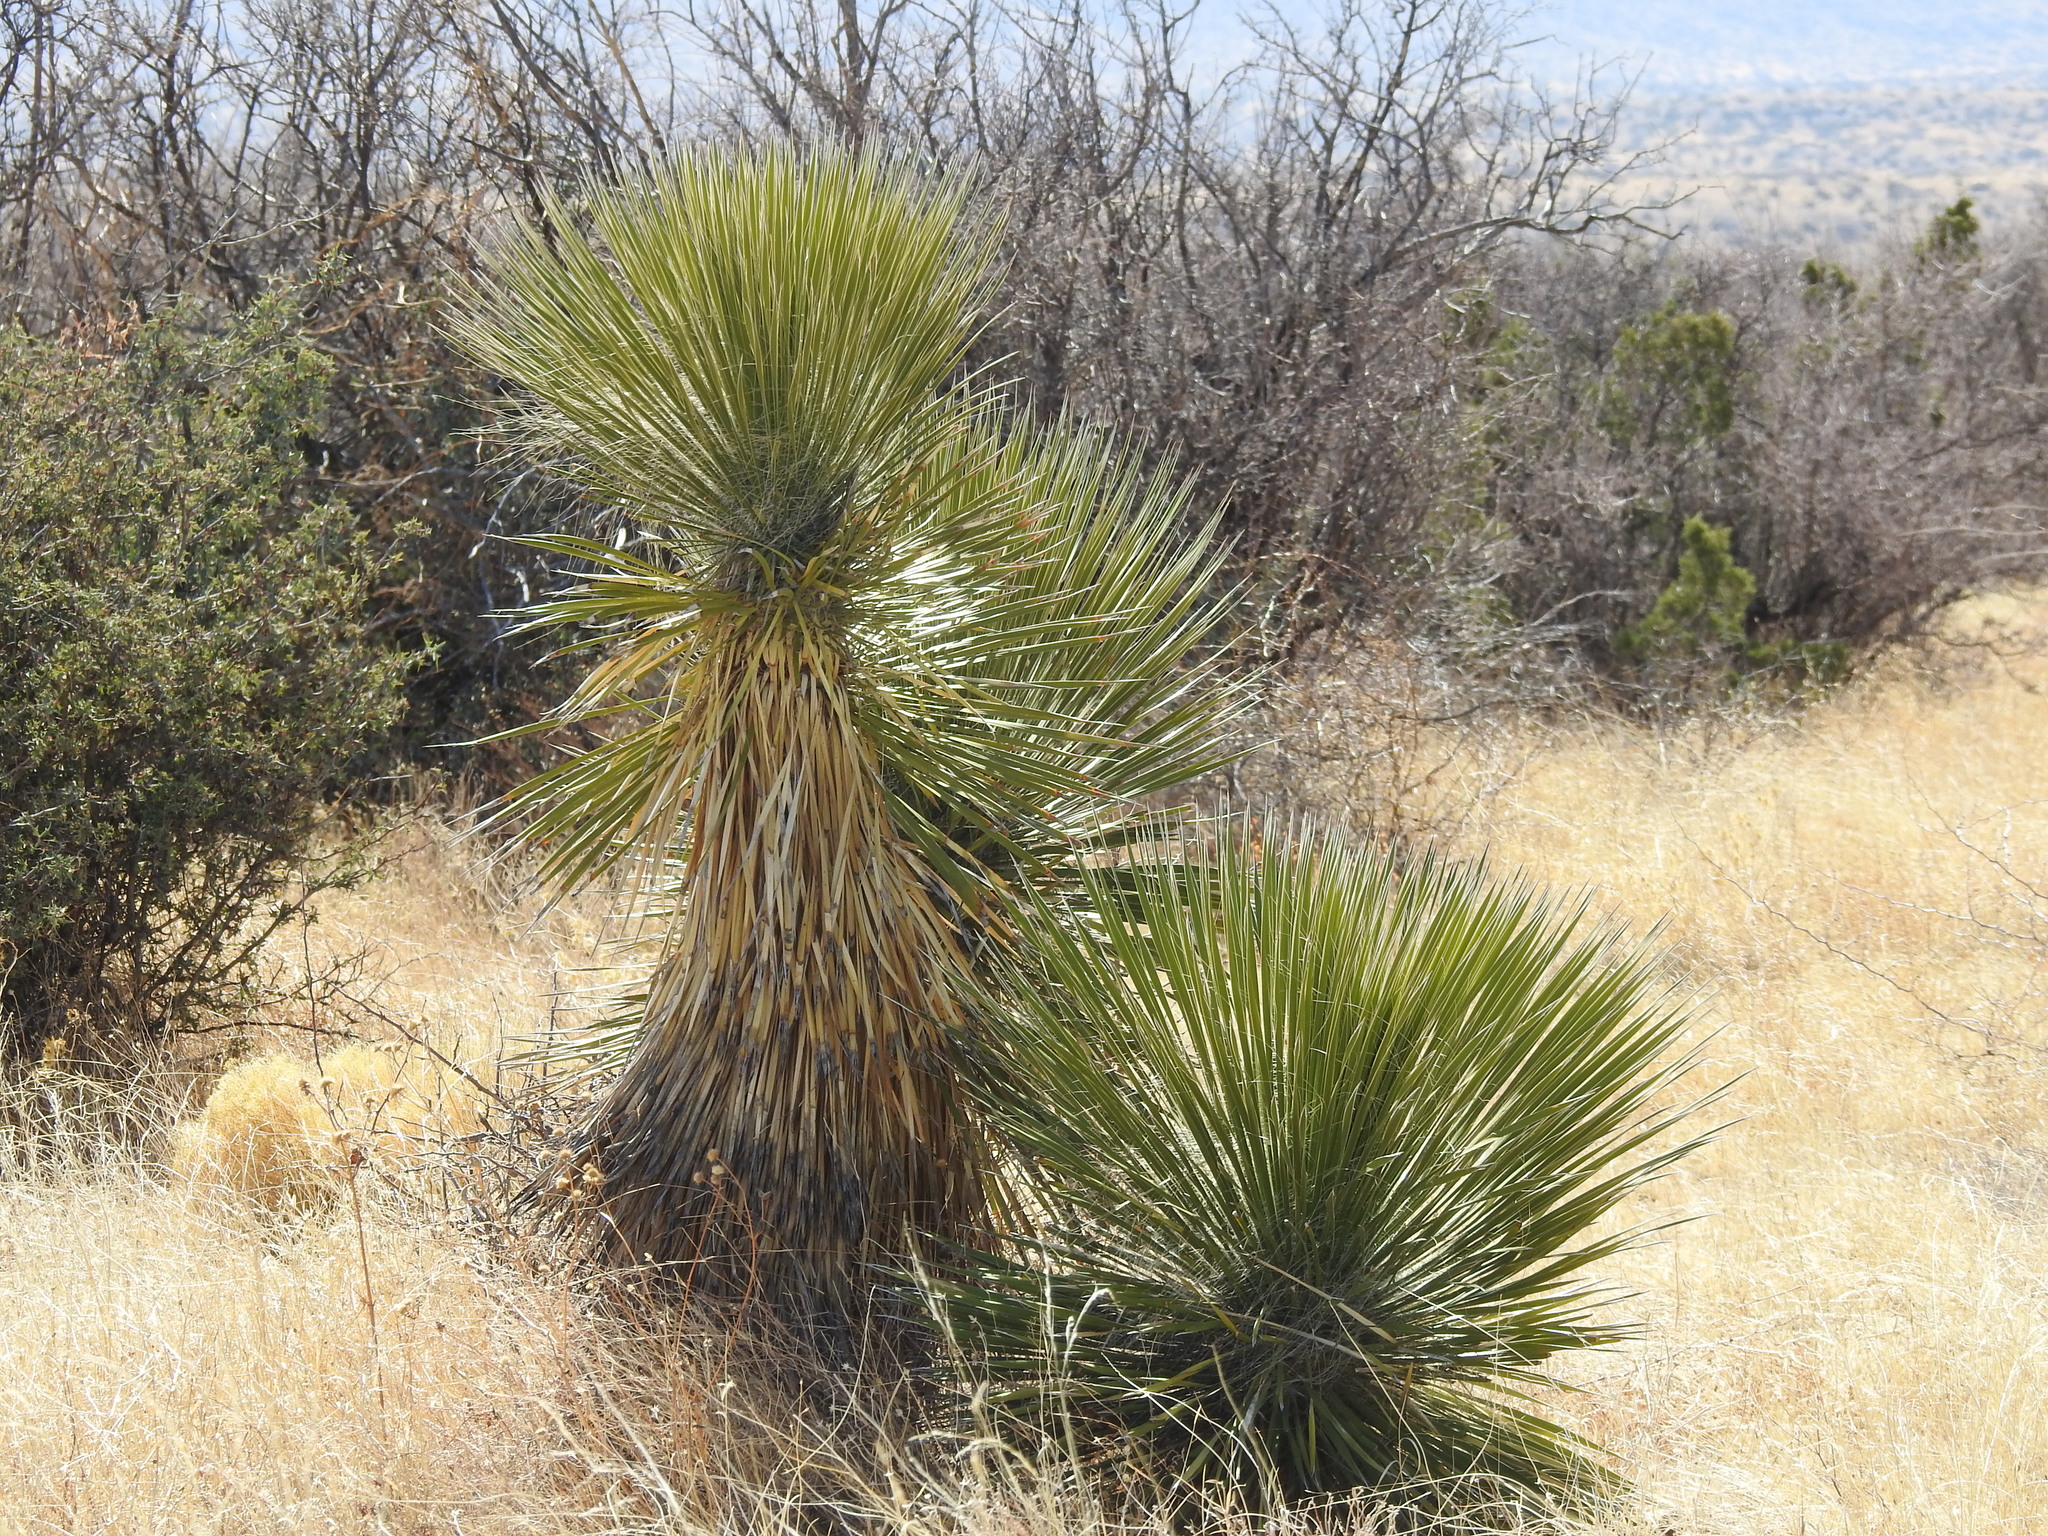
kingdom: Plantae
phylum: Tracheophyta
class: Liliopsida
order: Asparagales
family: Asparagaceae
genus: Yucca
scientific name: Yucca elata
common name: Palmella
